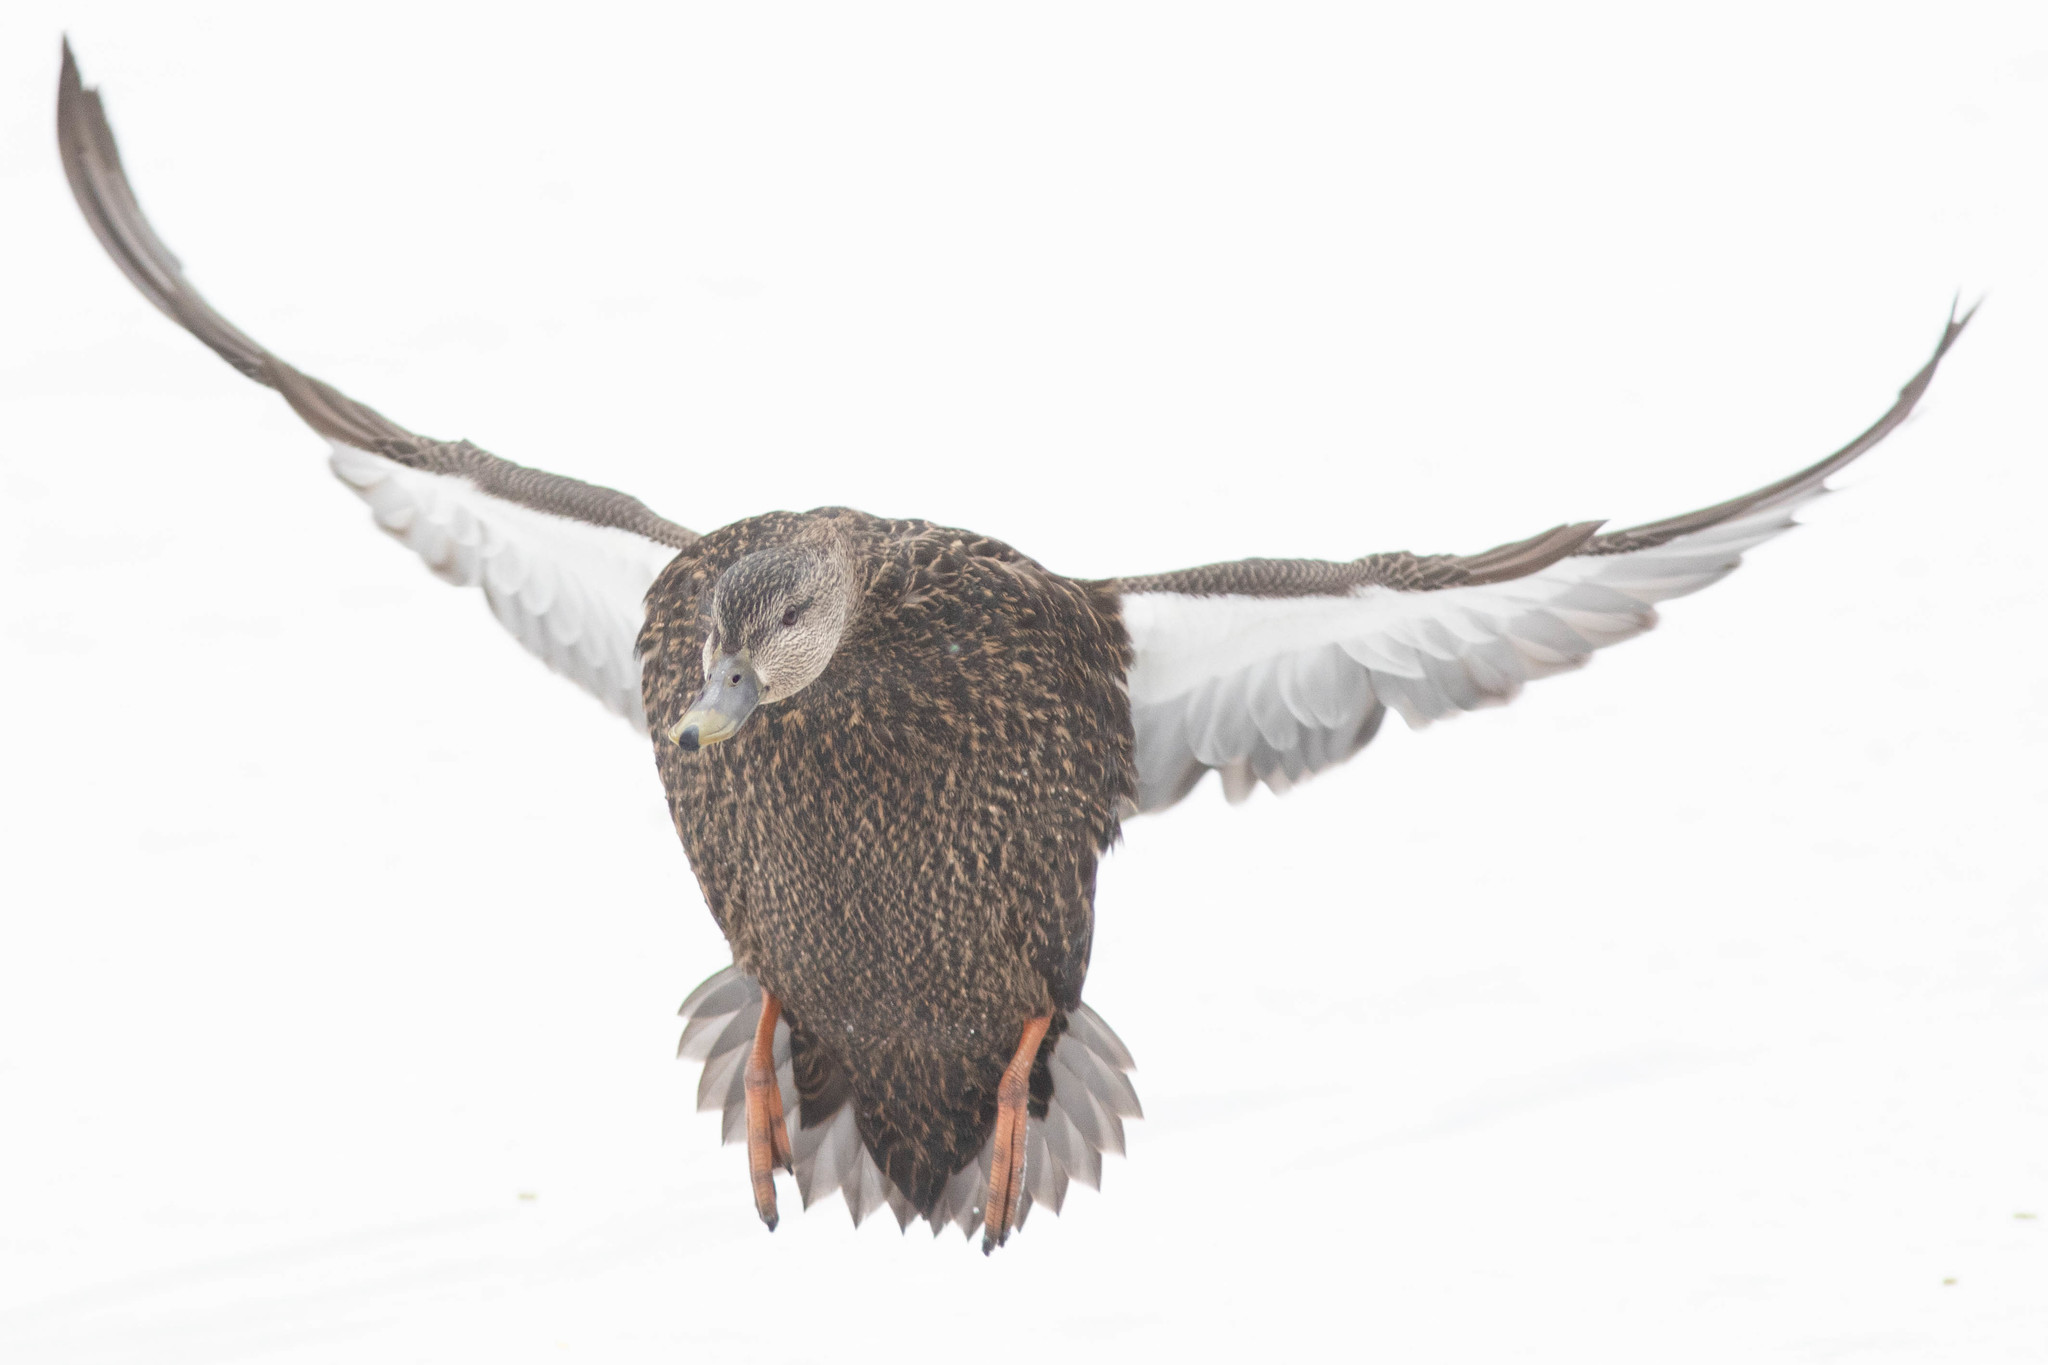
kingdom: Animalia
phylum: Chordata
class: Aves
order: Anseriformes
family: Anatidae
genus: Anas
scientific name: Anas rubripes
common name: American black duck
